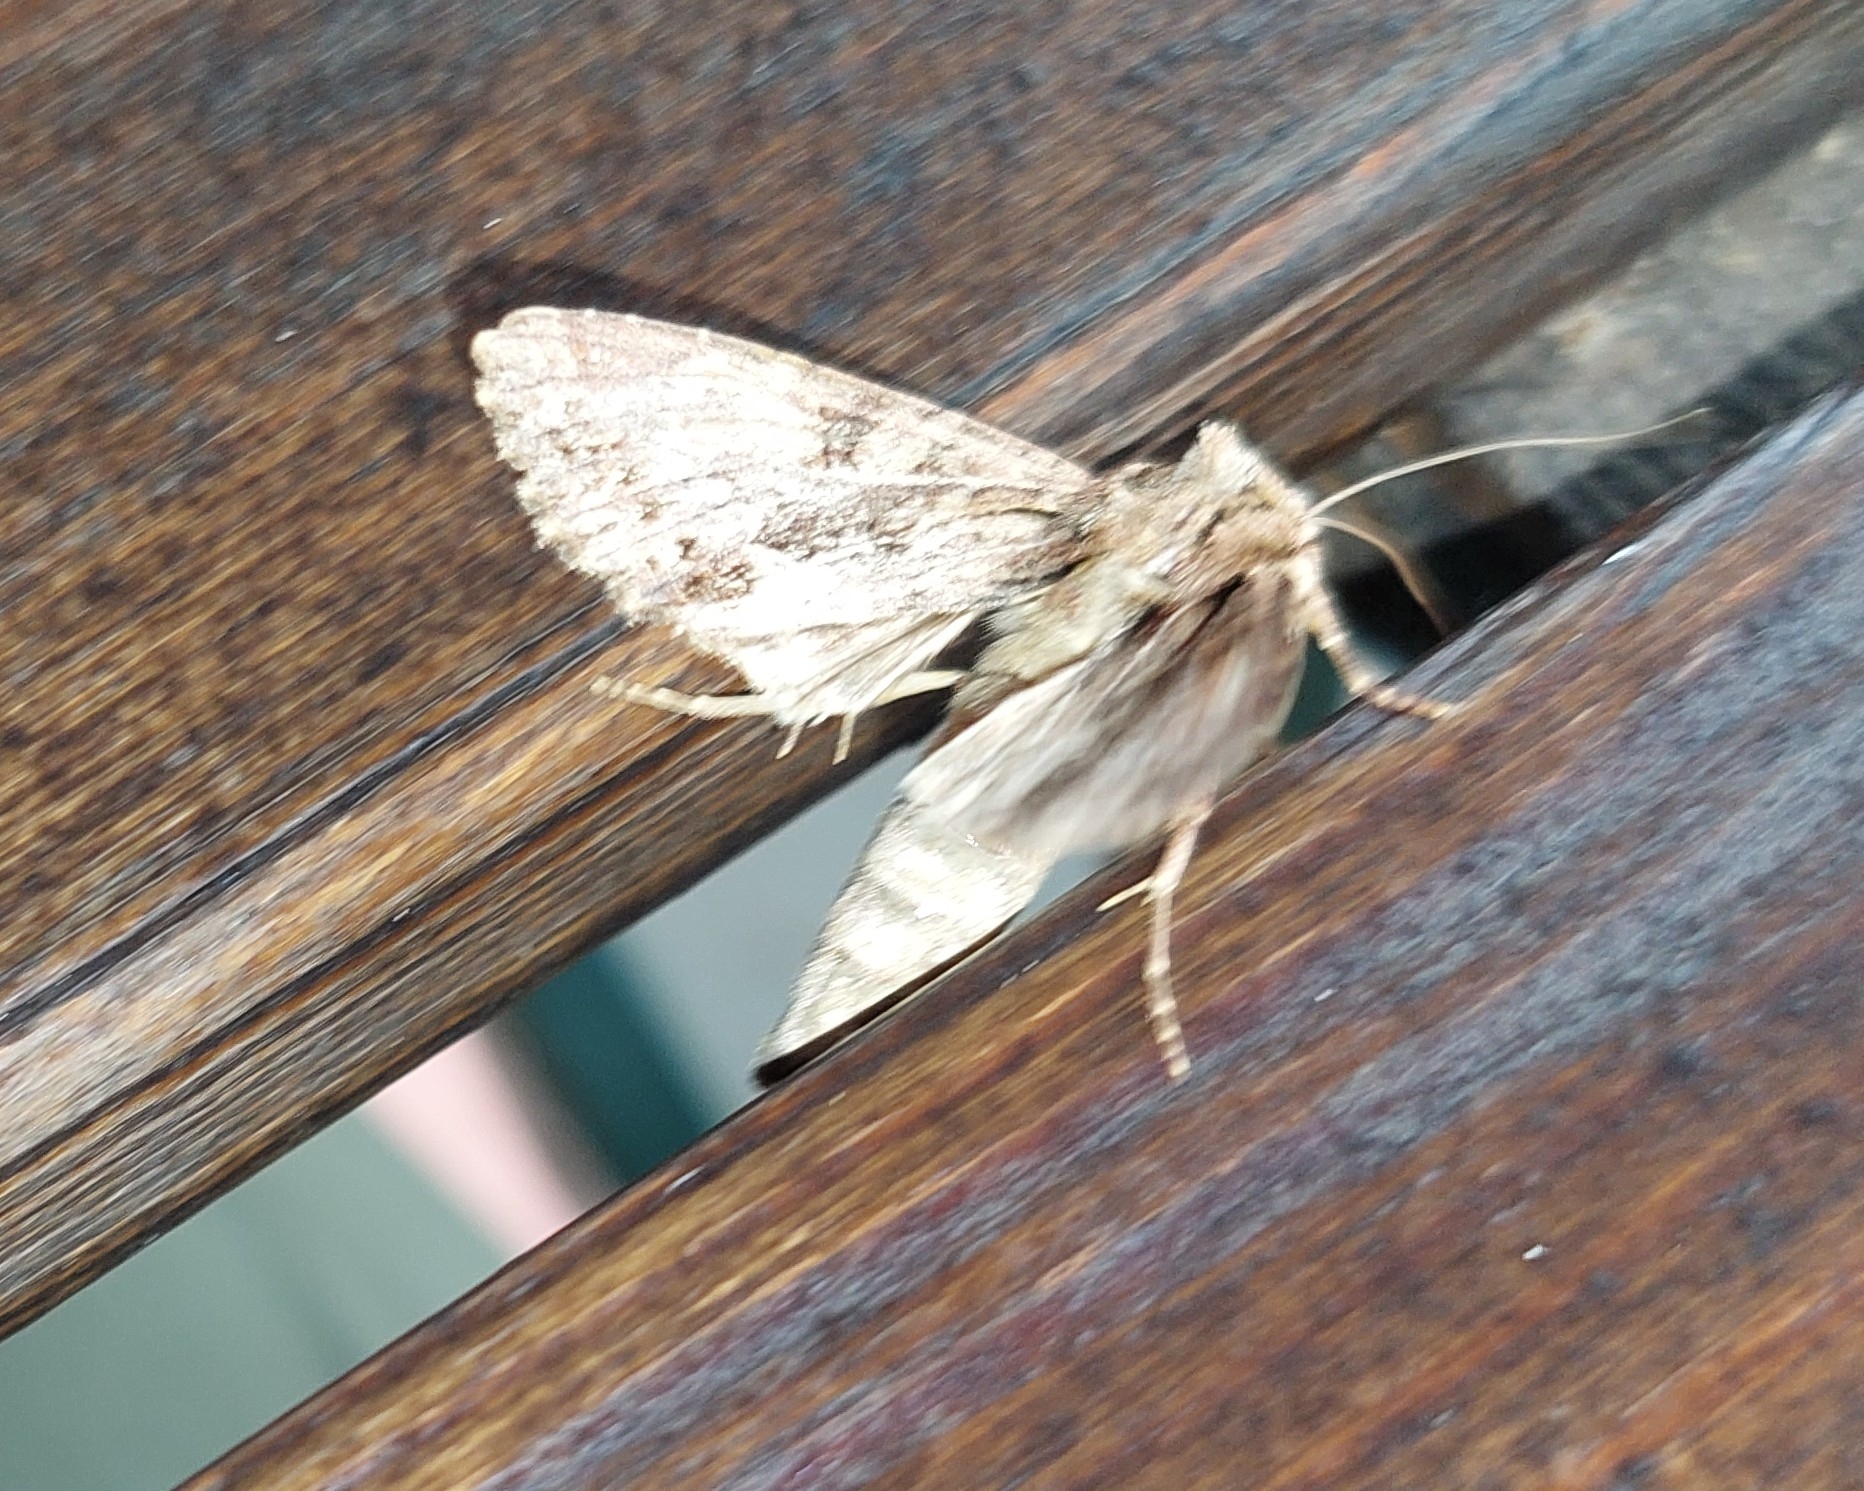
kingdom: Animalia
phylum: Arthropoda
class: Insecta
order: Lepidoptera
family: Noctuidae
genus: Apamea
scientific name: Apamea monoglypha
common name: Dark arches
